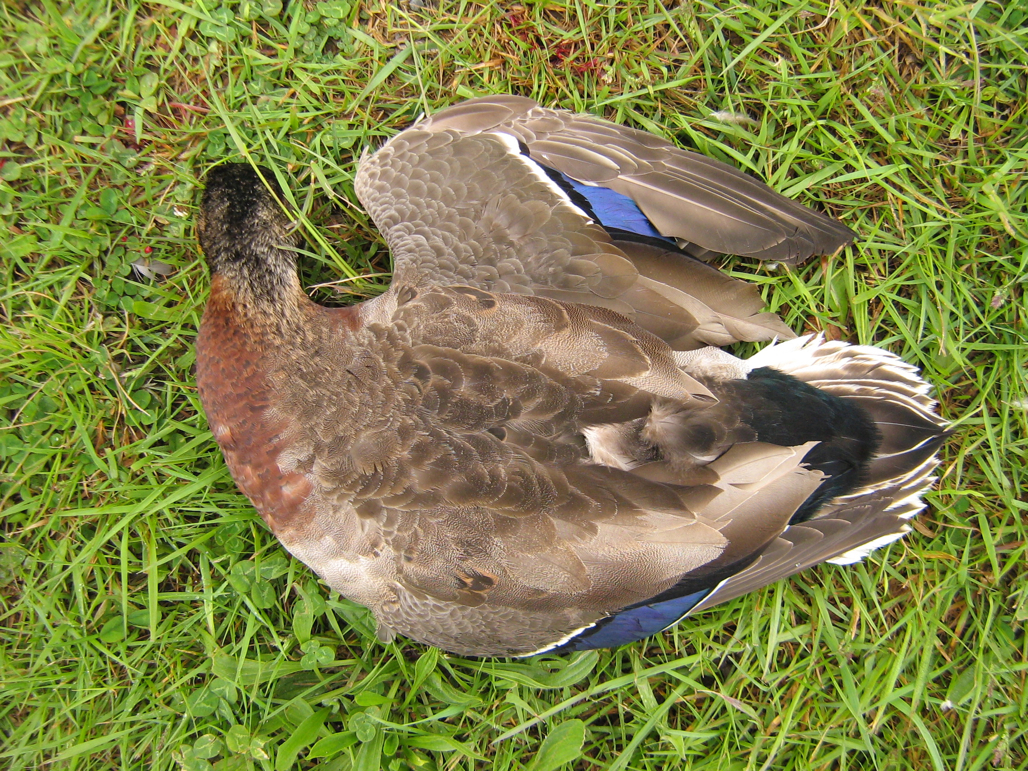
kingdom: Animalia
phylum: Chordata
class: Aves
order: Anseriformes
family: Anatidae
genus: Anas
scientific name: Anas platyrhynchos
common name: Mallard
